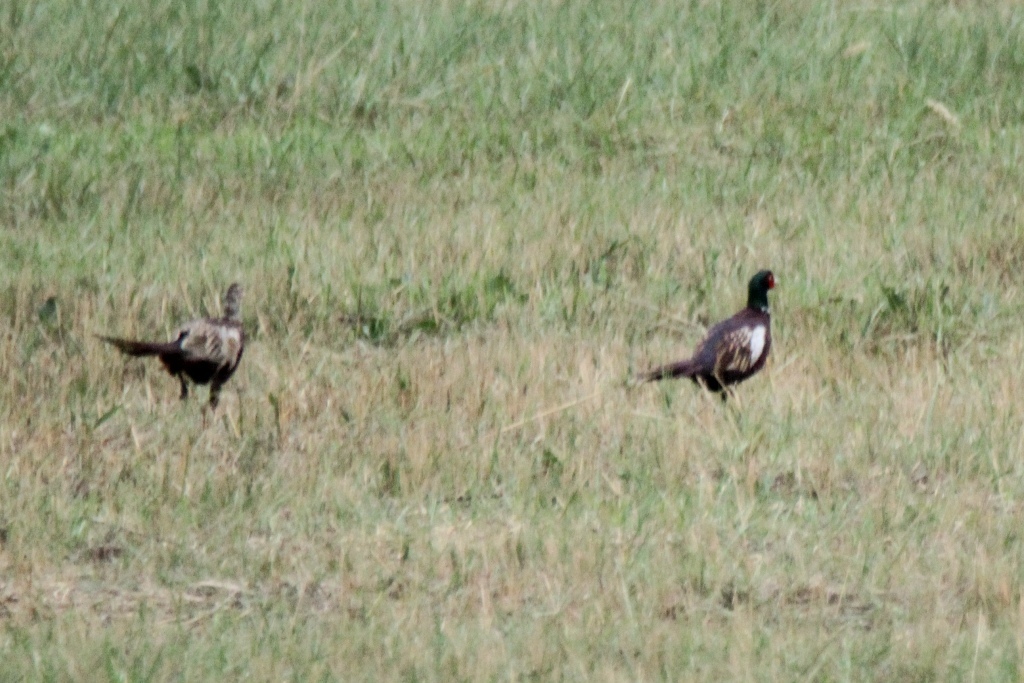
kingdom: Animalia
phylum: Chordata
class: Aves
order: Galliformes
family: Phasianidae
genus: Phasianus
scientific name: Phasianus colchicus
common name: Common pheasant
